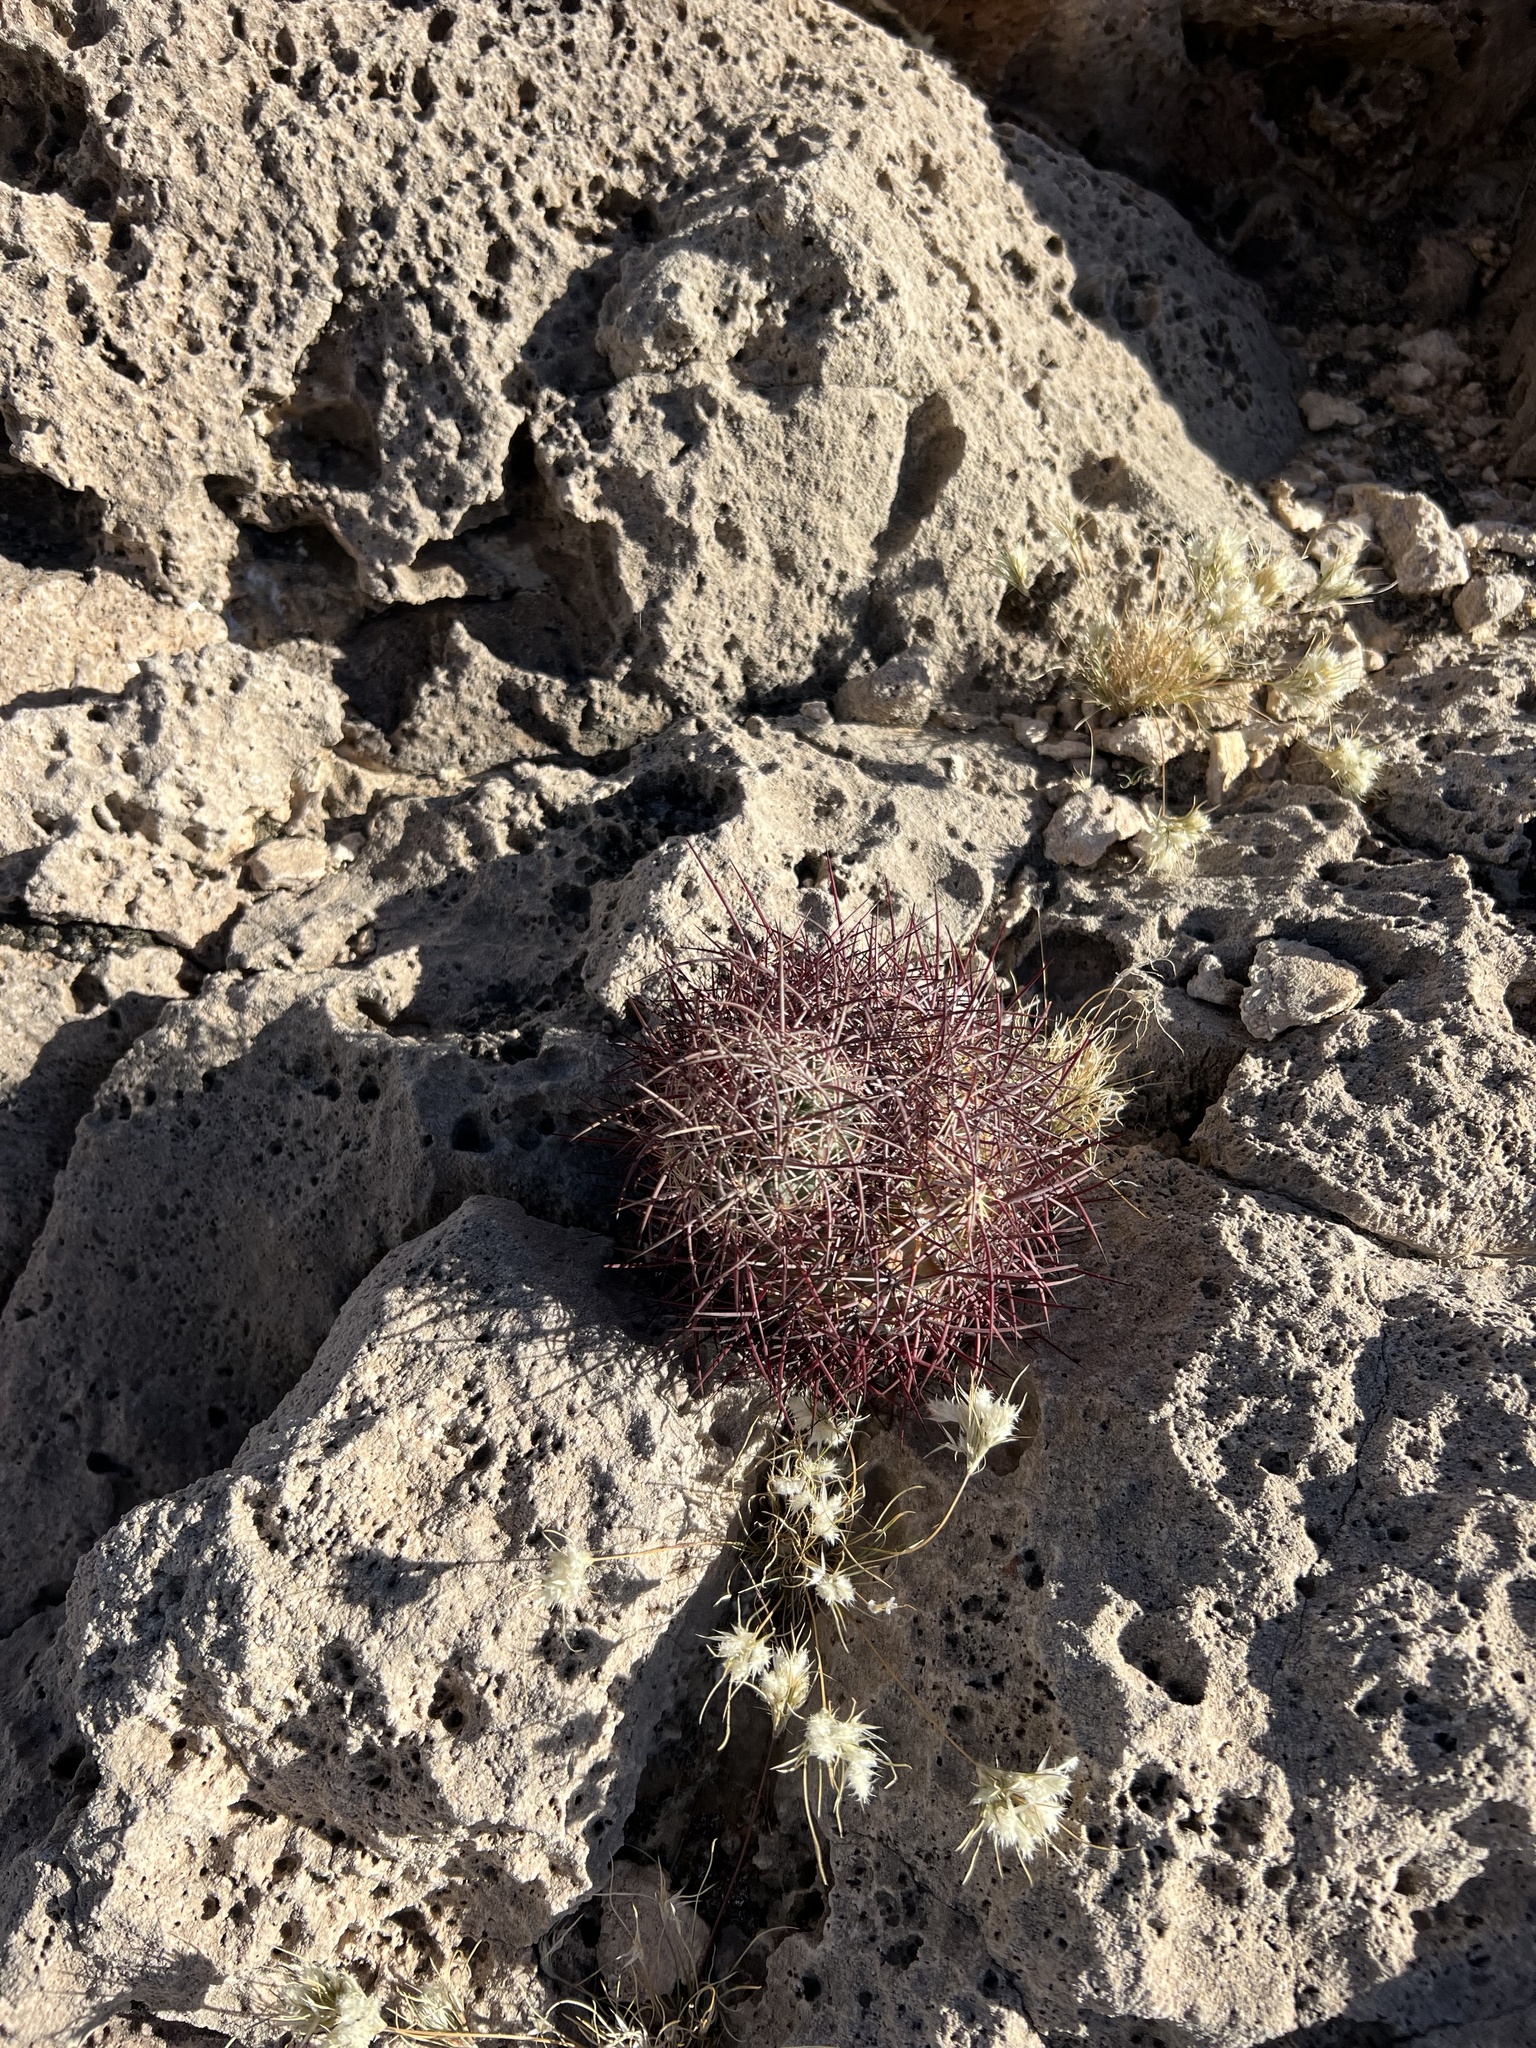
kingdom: Plantae
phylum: Tracheophyta
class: Magnoliopsida
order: Caryophyllales
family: Cactaceae
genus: Sclerocactus
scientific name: Sclerocactus johnsonii
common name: Eight-spine fishhook cactus
